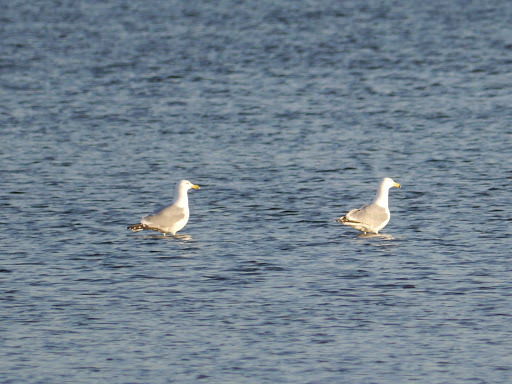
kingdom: Animalia
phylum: Chordata
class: Aves
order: Charadriiformes
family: Laridae
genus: Larus
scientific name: Larus argentatus
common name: Herring gull
